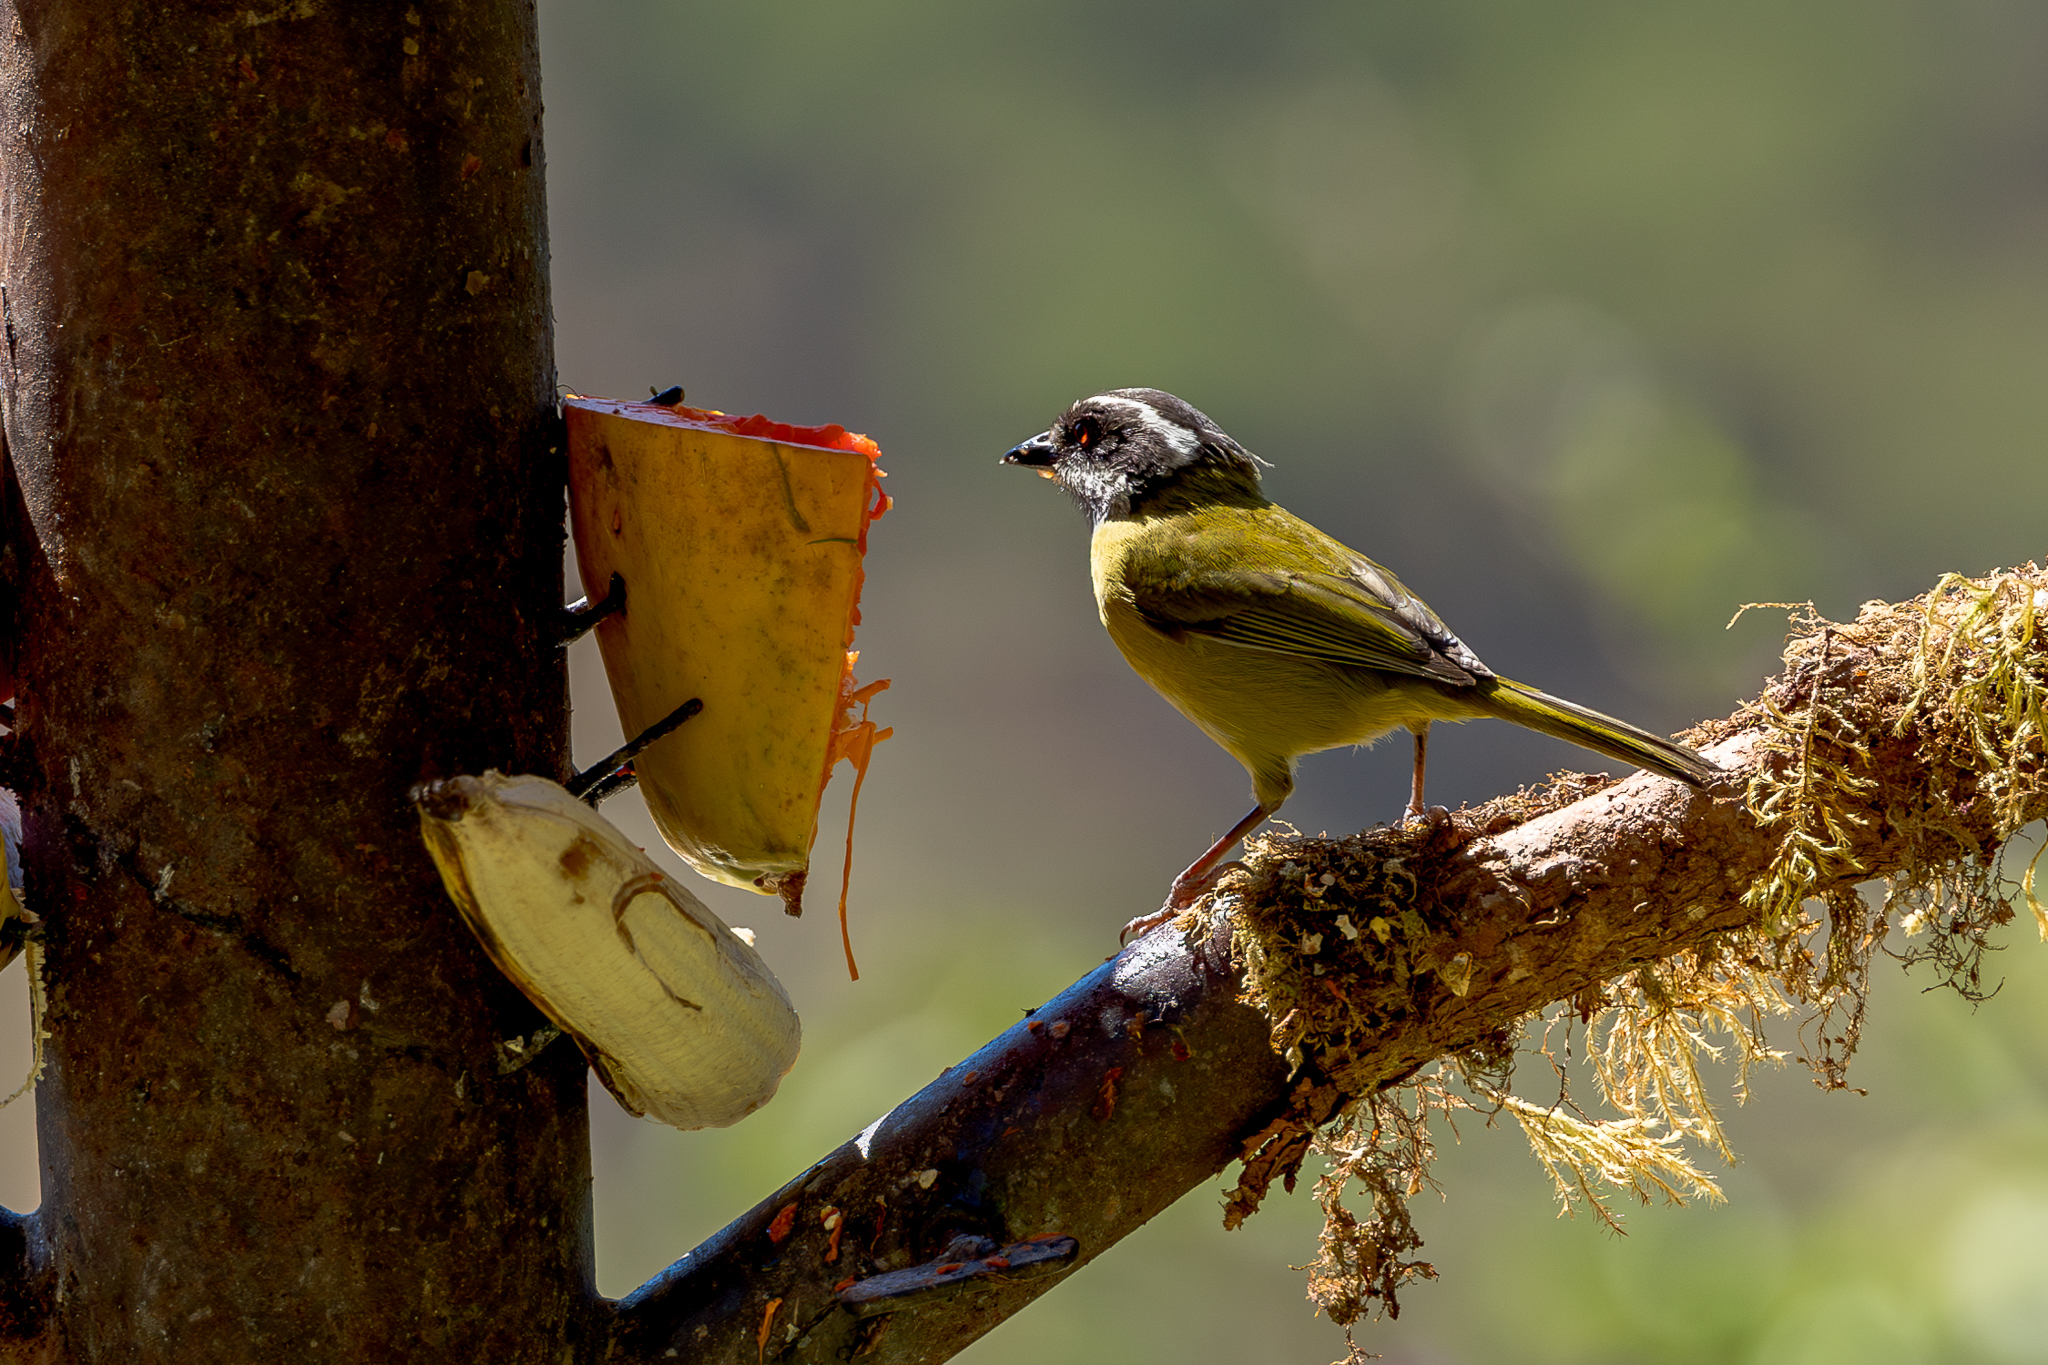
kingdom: Animalia
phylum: Chordata
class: Aves
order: Passeriformes
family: Passerellidae
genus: Chlorospingus
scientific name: Chlorospingus pileatus
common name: Sooty-capped bush-tanager
